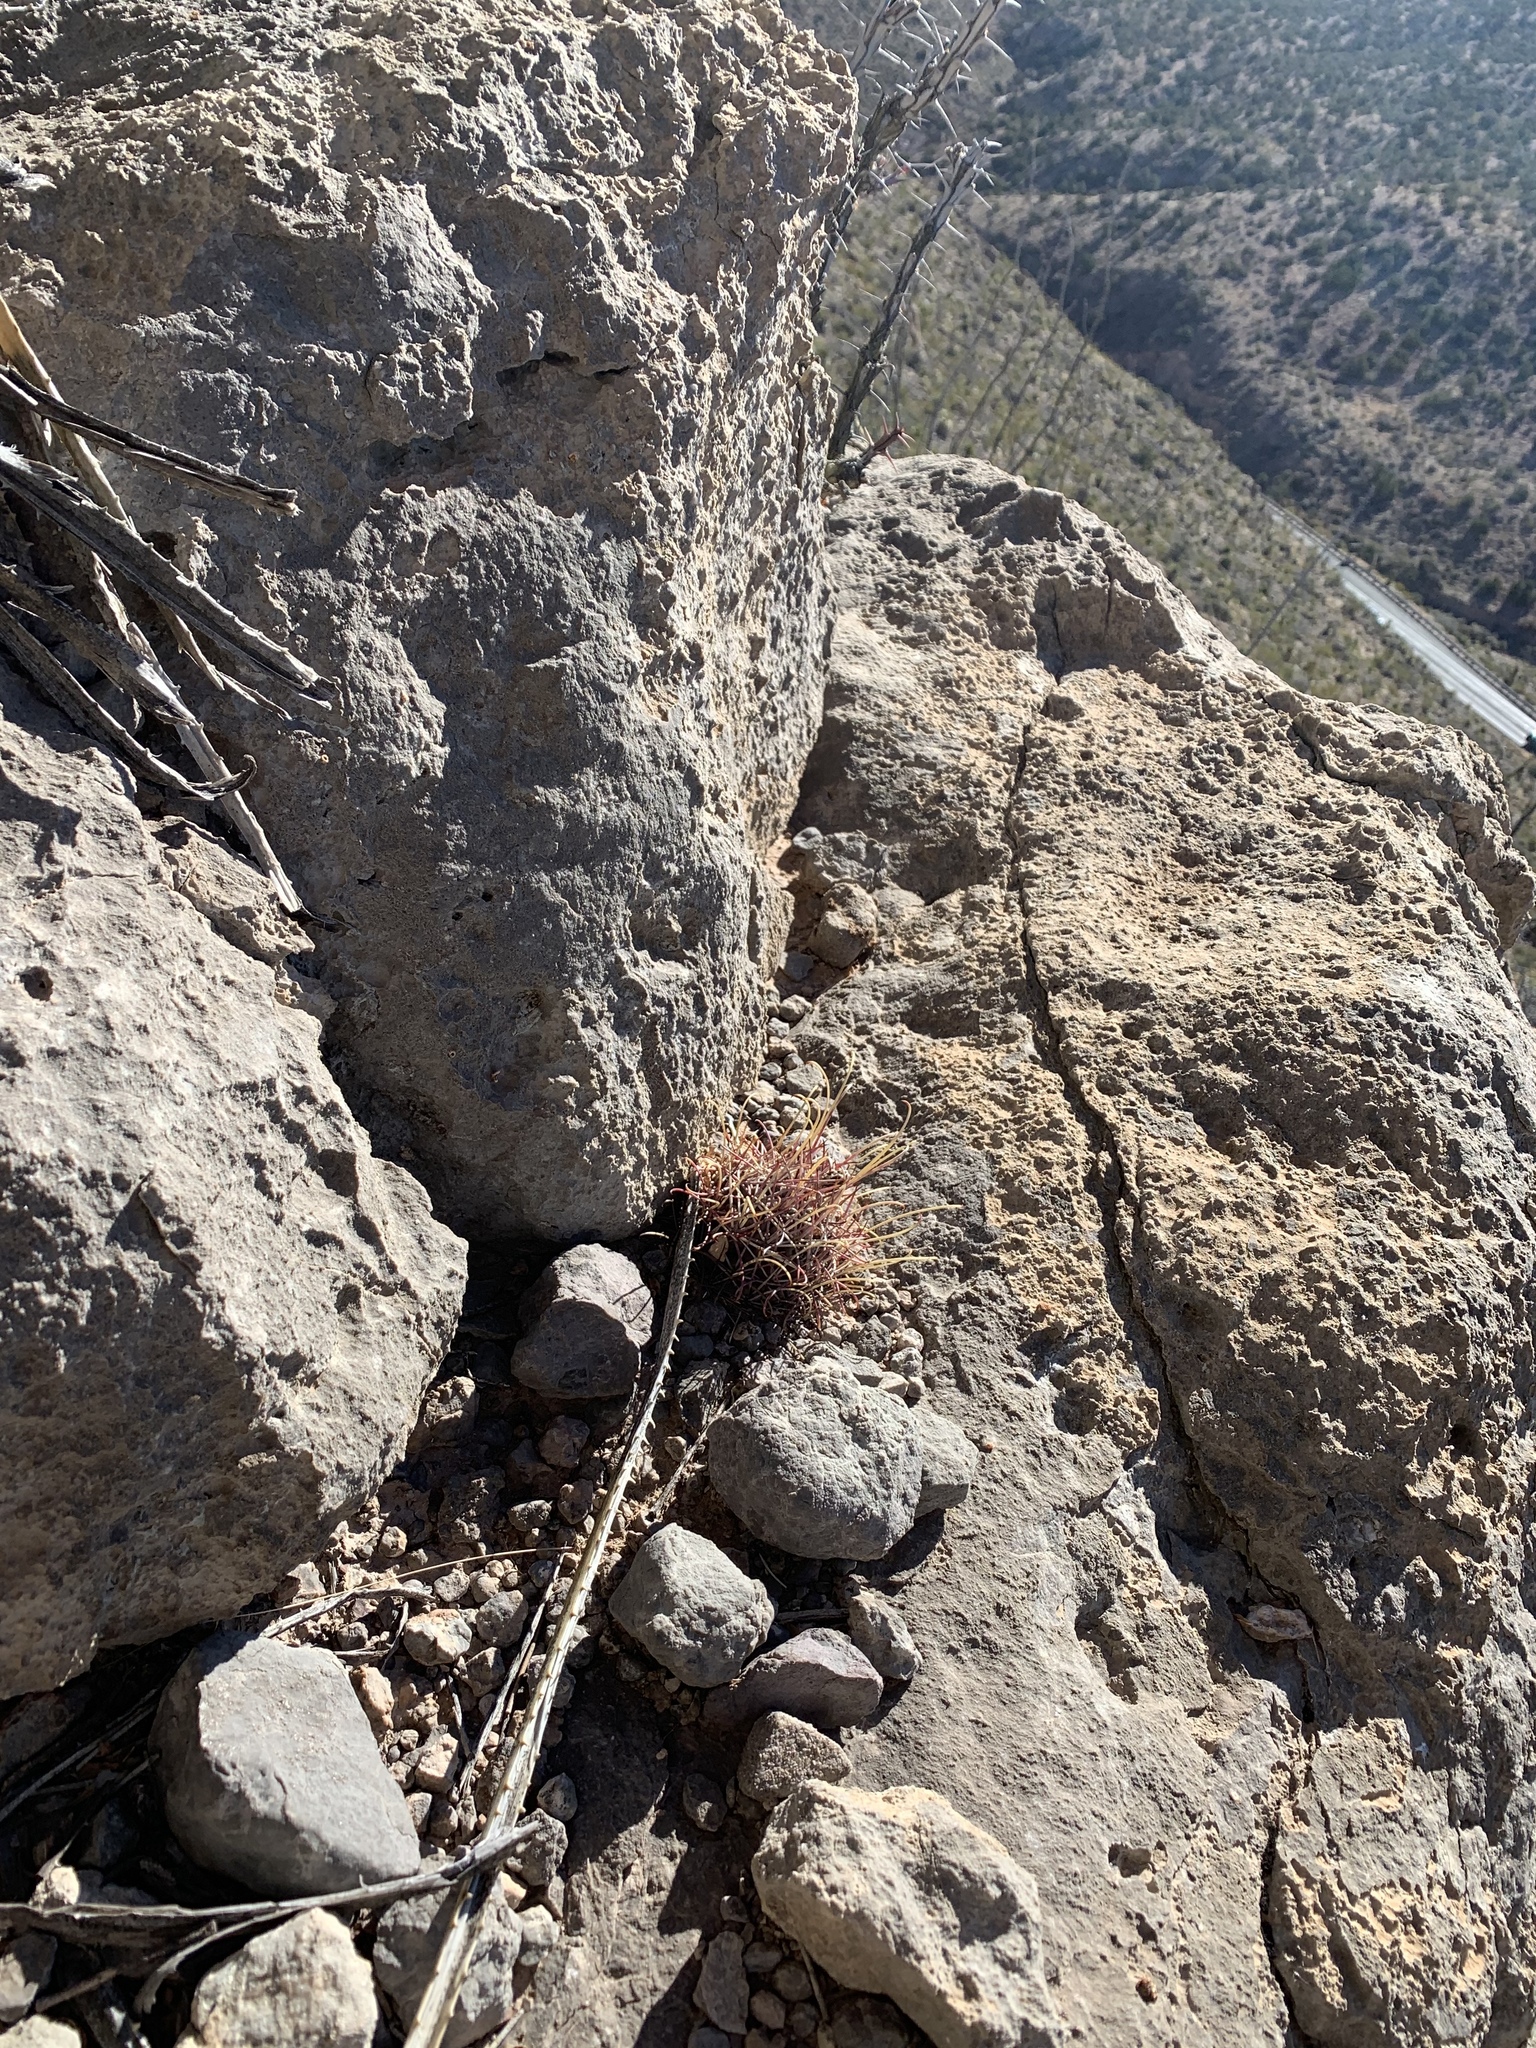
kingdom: Plantae
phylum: Tracheophyta
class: Magnoliopsida
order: Caryophyllales
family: Cactaceae
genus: Ferocactus
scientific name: Ferocactus uncinatus
